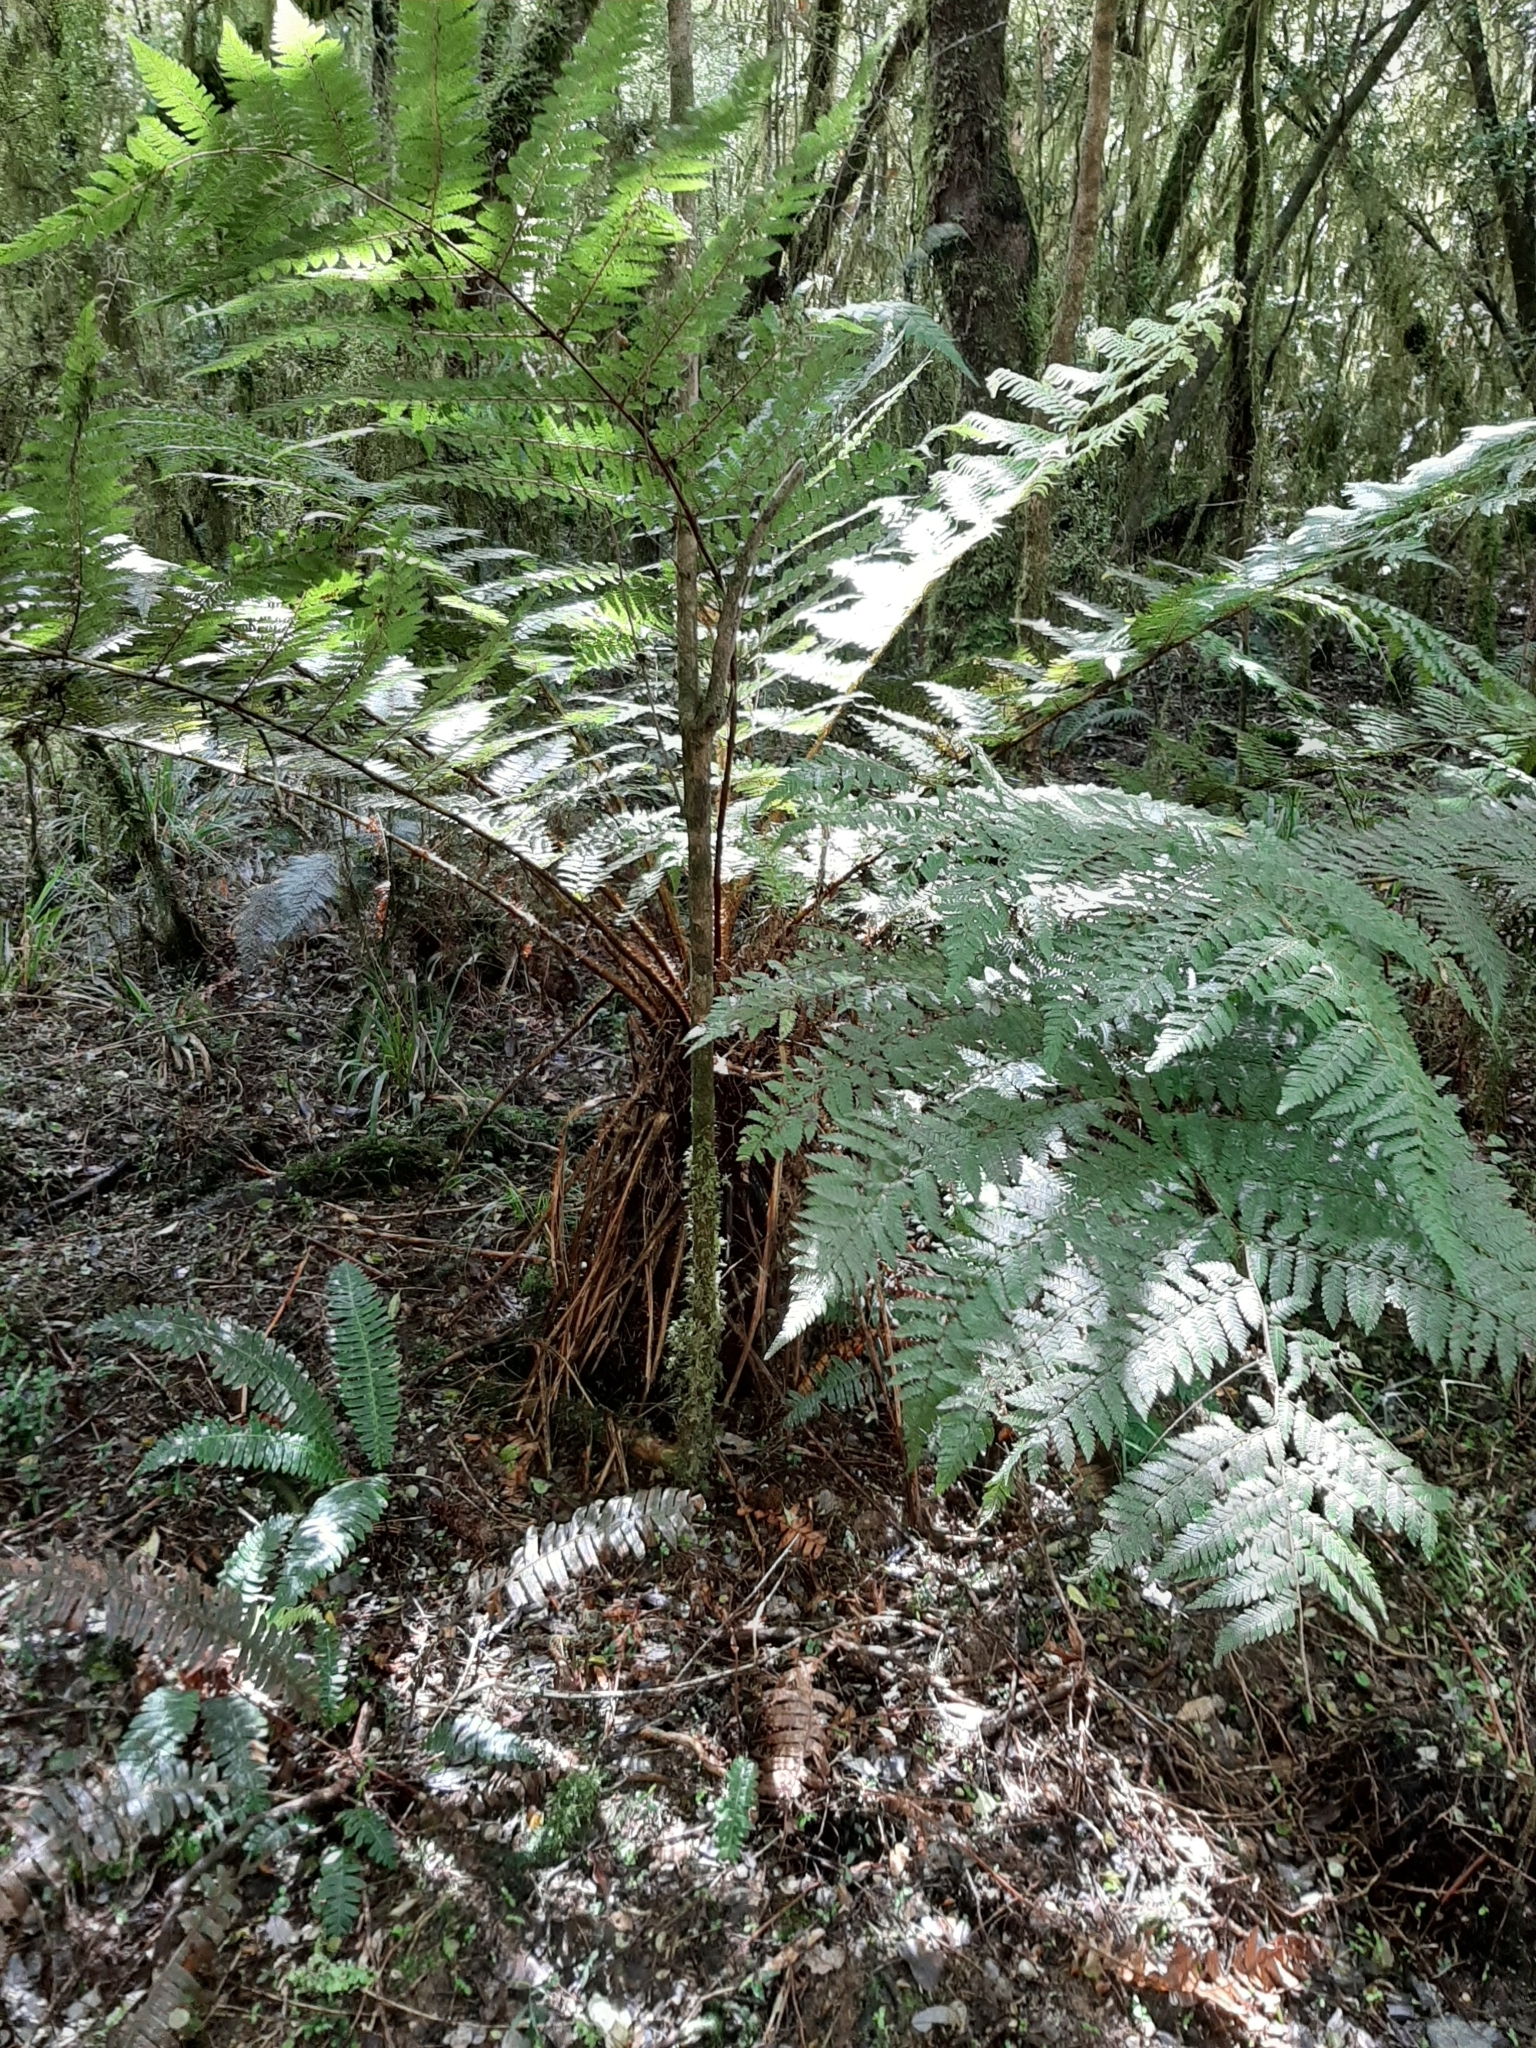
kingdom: Plantae
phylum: Tracheophyta
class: Polypodiopsida
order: Cyatheales
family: Cyatheaceae
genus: Alsophila
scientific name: Alsophila smithii
